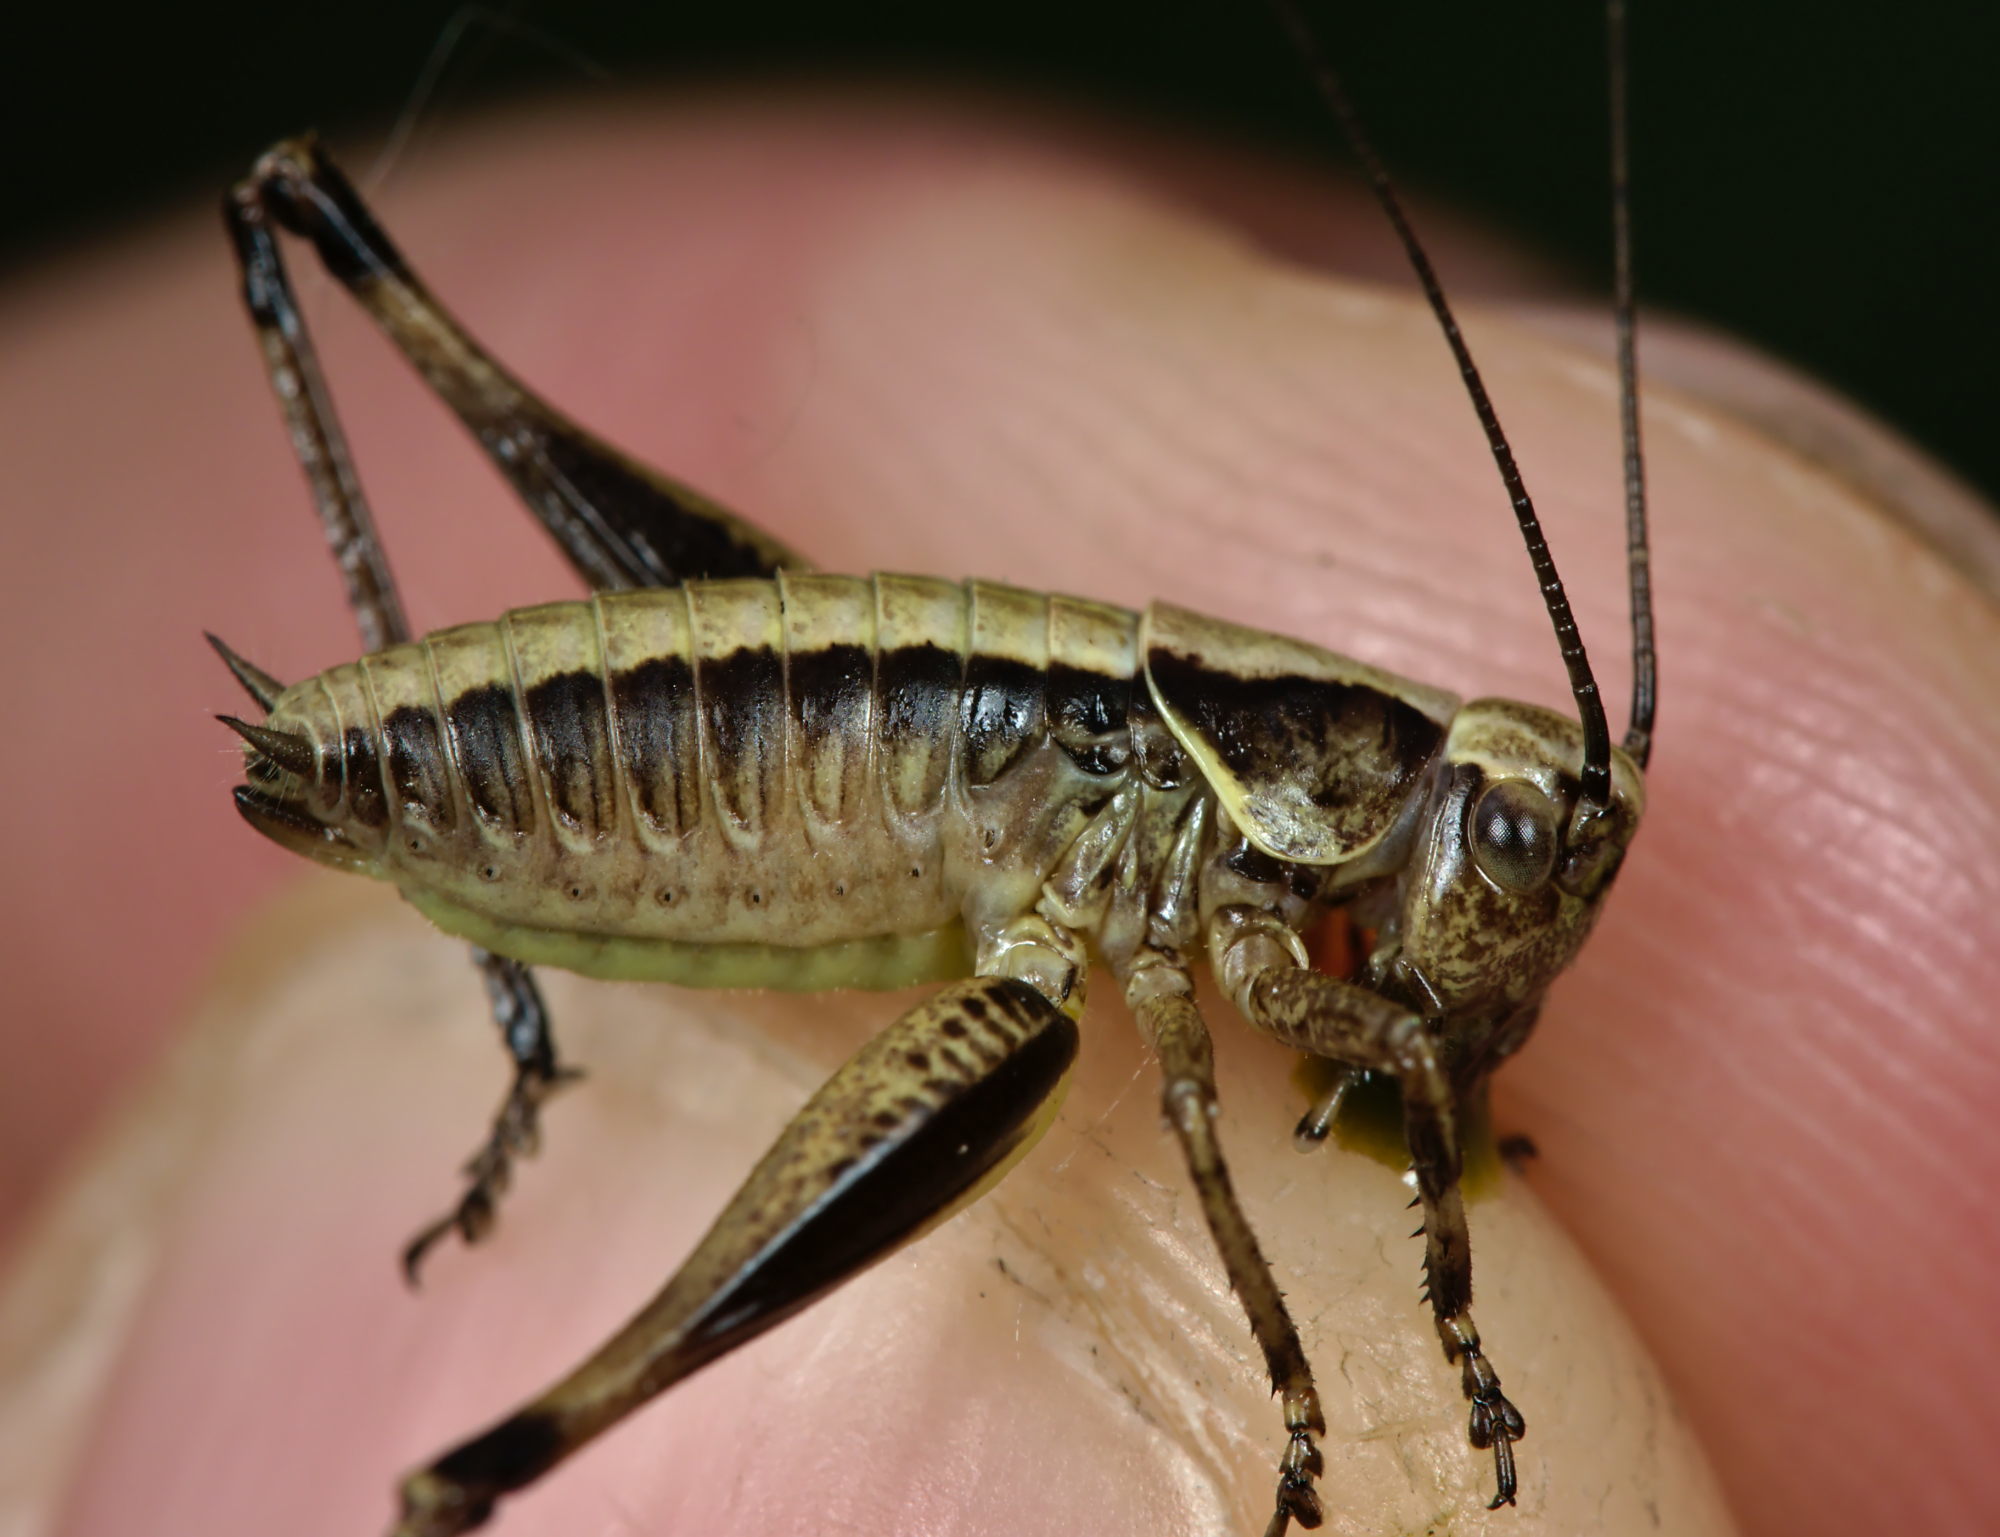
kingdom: Animalia
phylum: Arthropoda
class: Insecta
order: Orthoptera
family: Tettigoniidae
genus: Pholidoptera
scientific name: Pholidoptera griseoaptera
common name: Dark bush-cricket
